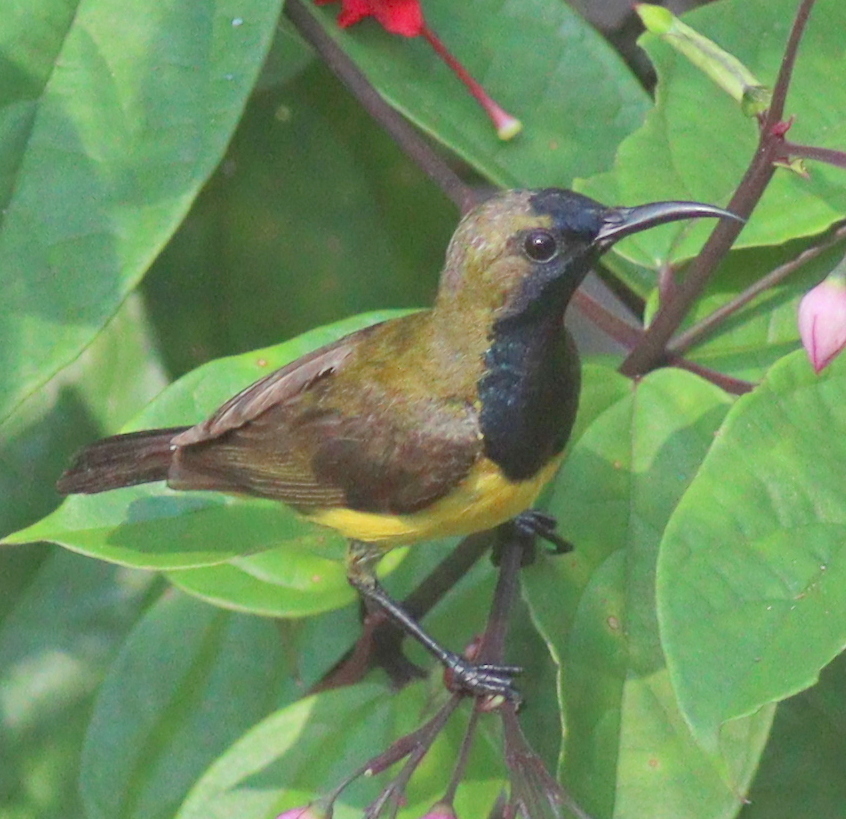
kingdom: Animalia
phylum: Chordata
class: Aves
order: Passeriformes
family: Nectariniidae
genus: Cinnyris
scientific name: Cinnyris
